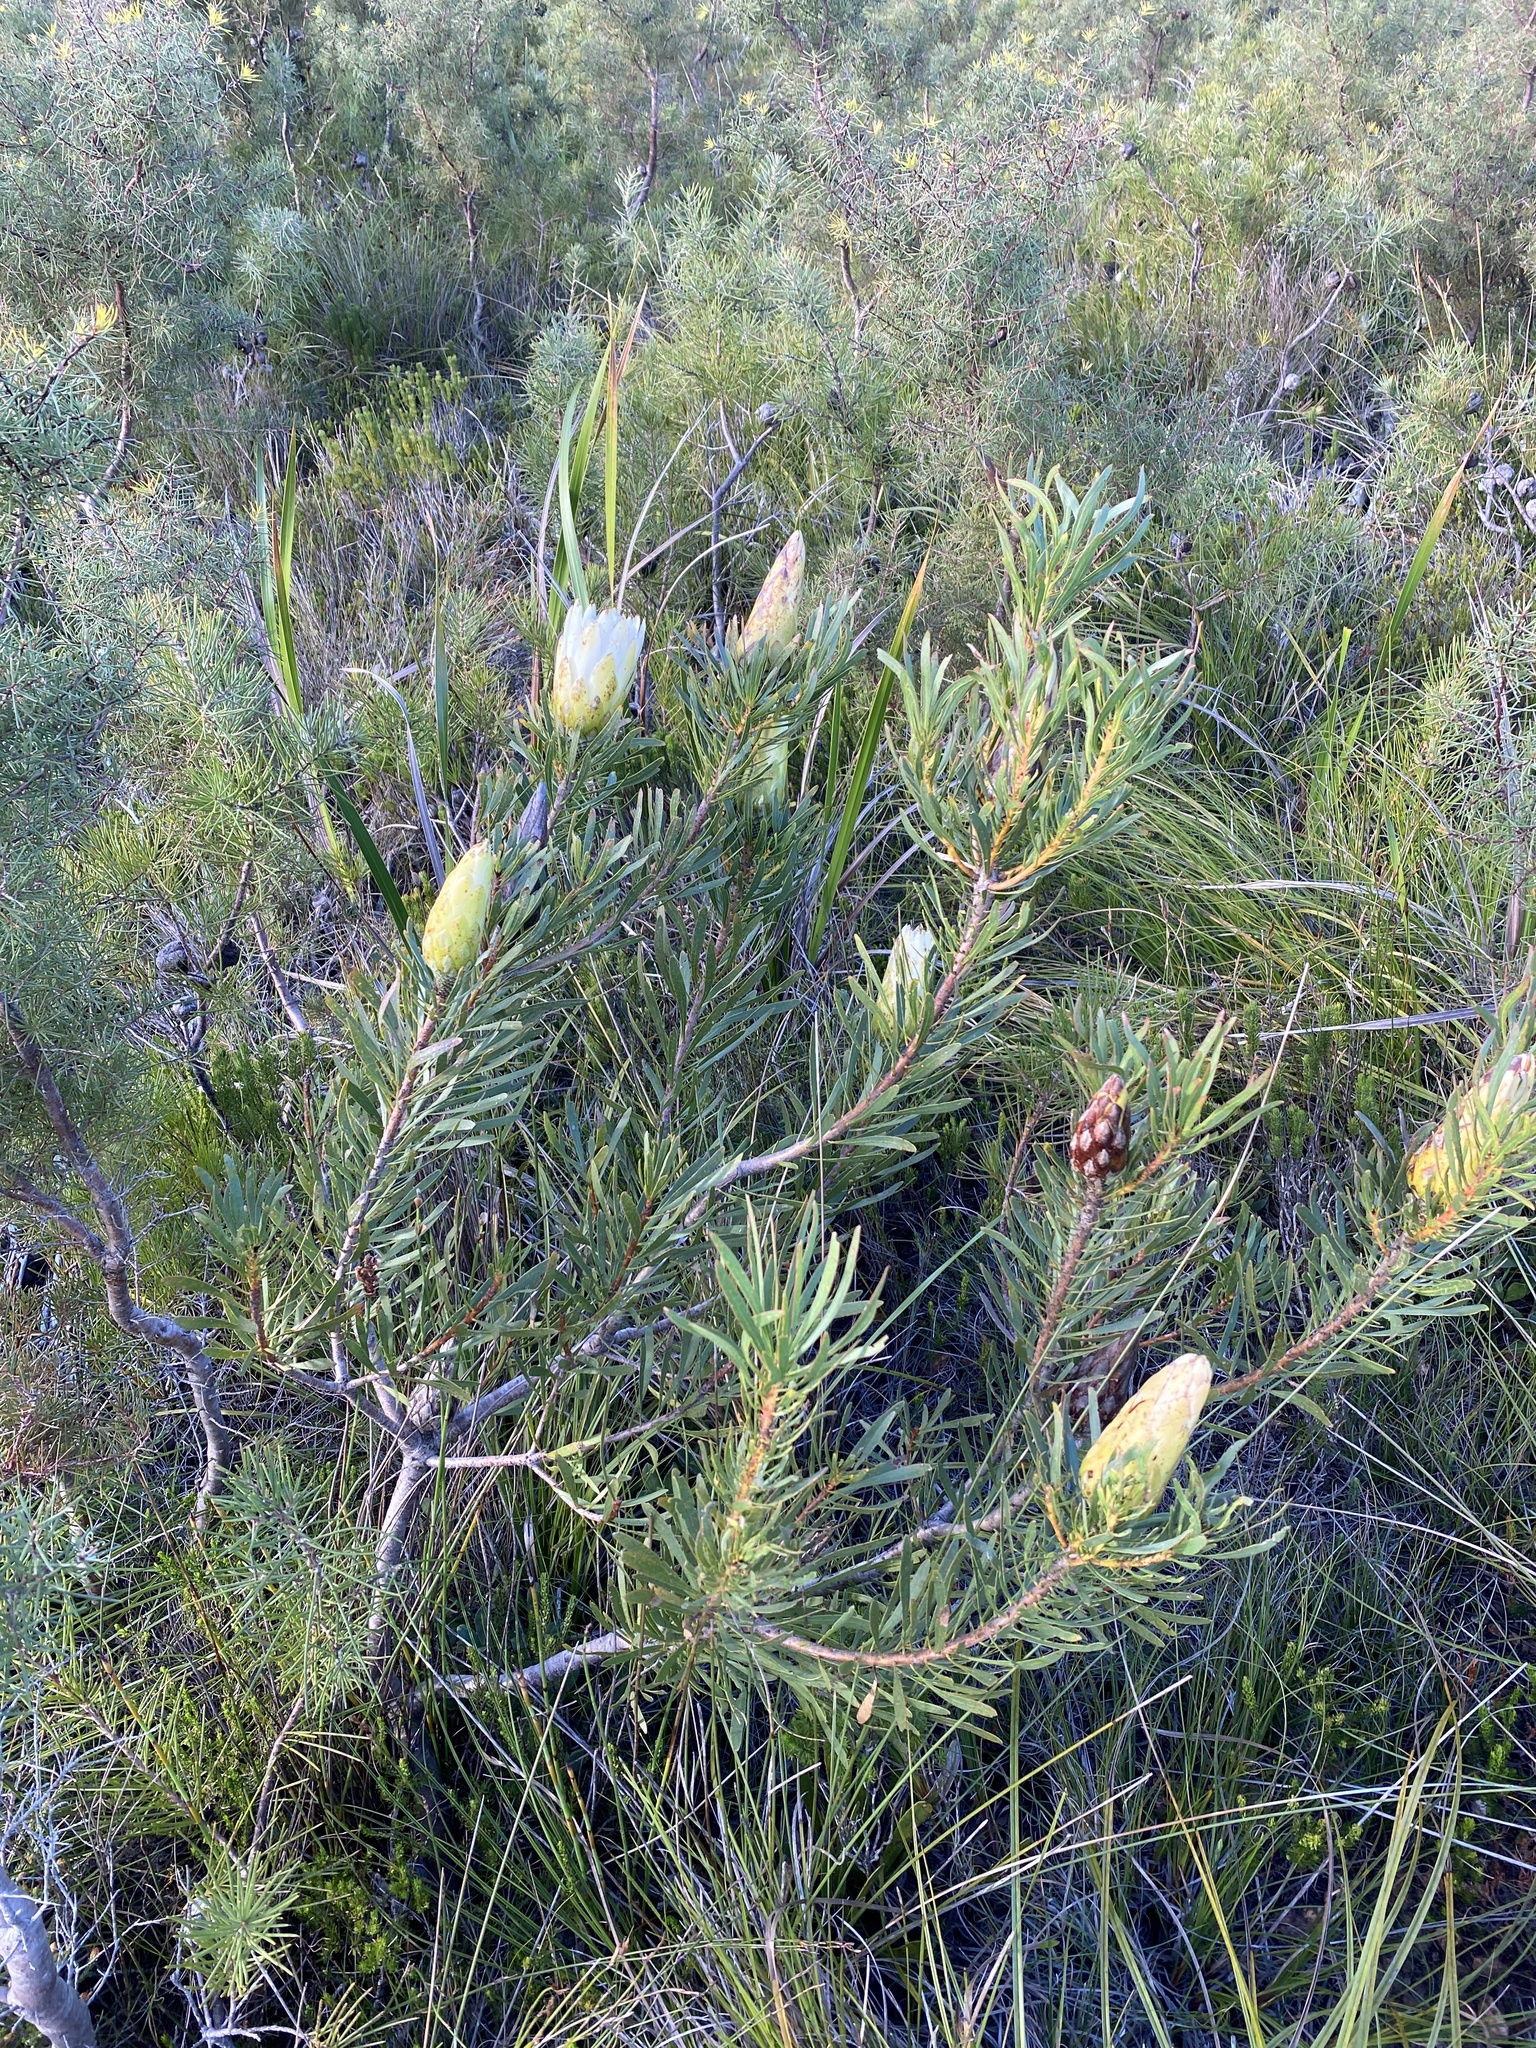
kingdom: Plantae
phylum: Tracheophyta
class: Magnoliopsida
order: Proteales
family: Proteaceae
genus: Protea
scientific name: Protea repens
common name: Sugarbush
